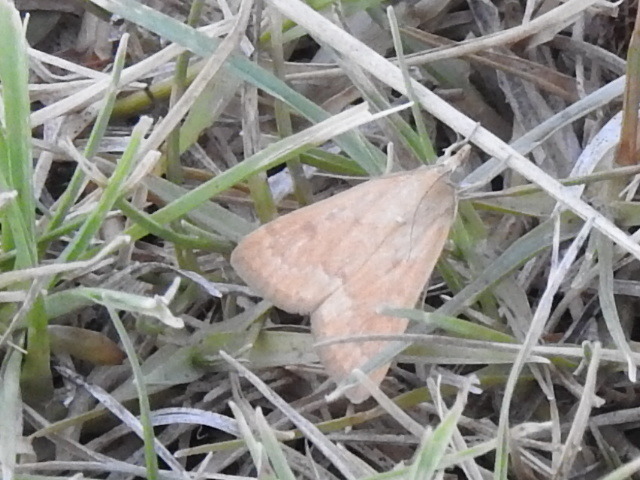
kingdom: Animalia
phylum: Arthropoda
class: Insecta
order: Lepidoptera
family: Crambidae
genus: Achyra
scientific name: Achyra rantalis
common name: Garden webworm
